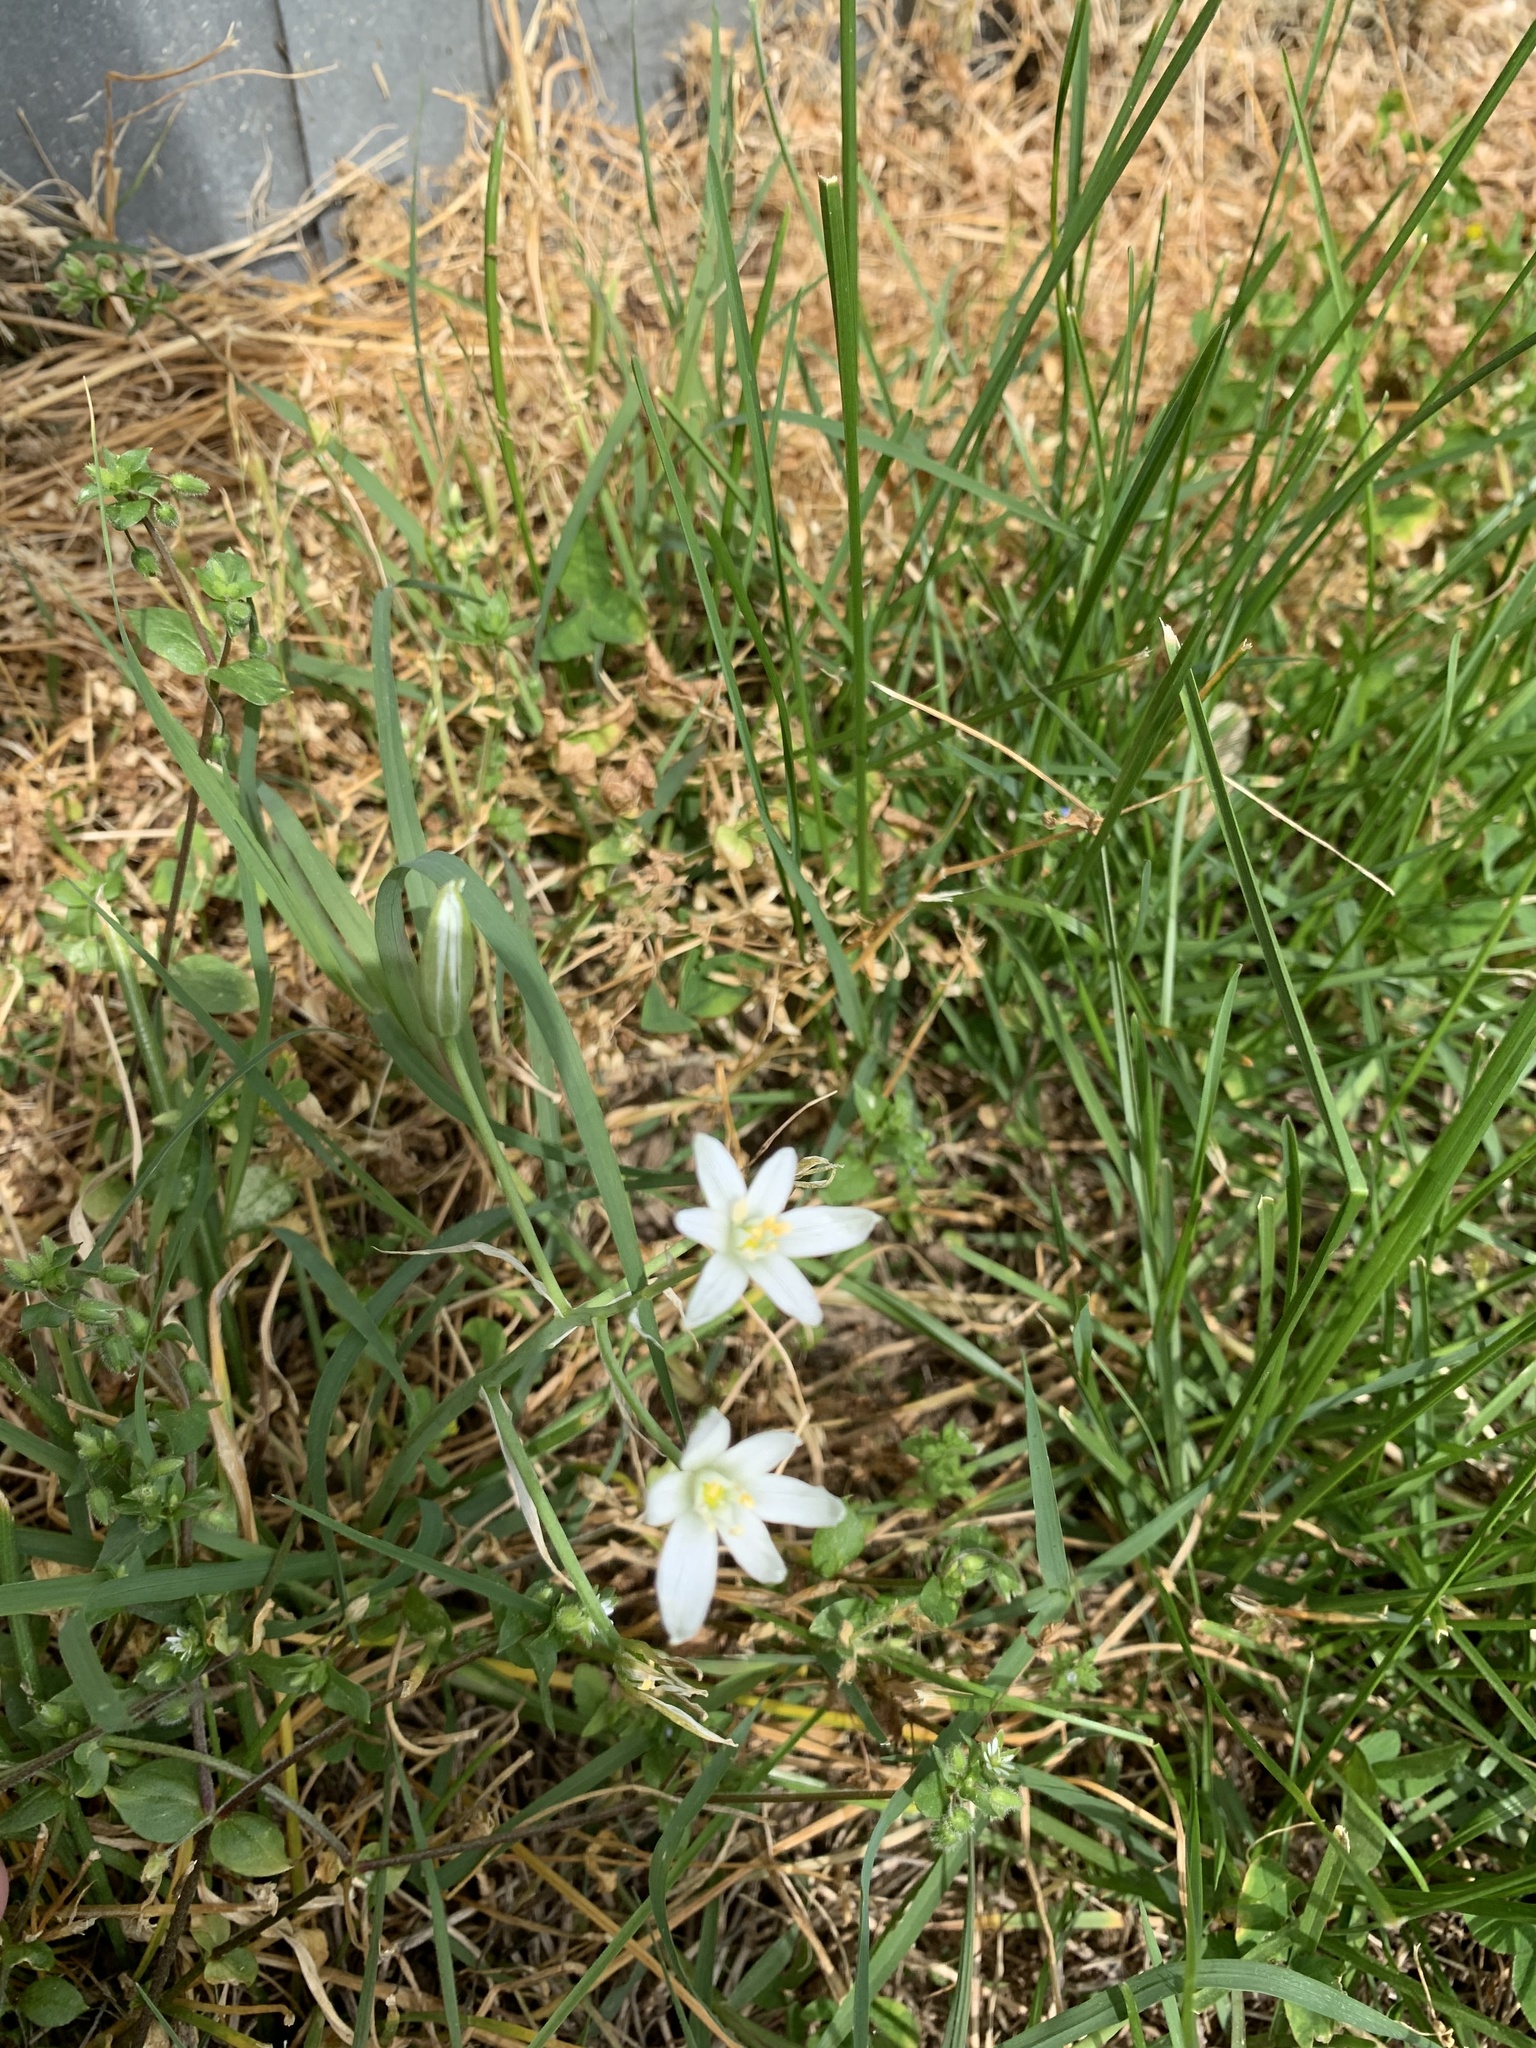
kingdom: Plantae
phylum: Tracheophyta
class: Liliopsida
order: Asparagales
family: Asparagaceae
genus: Ornithogalum
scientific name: Ornithogalum umbellatum
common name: Garden star-of-bethlehem
